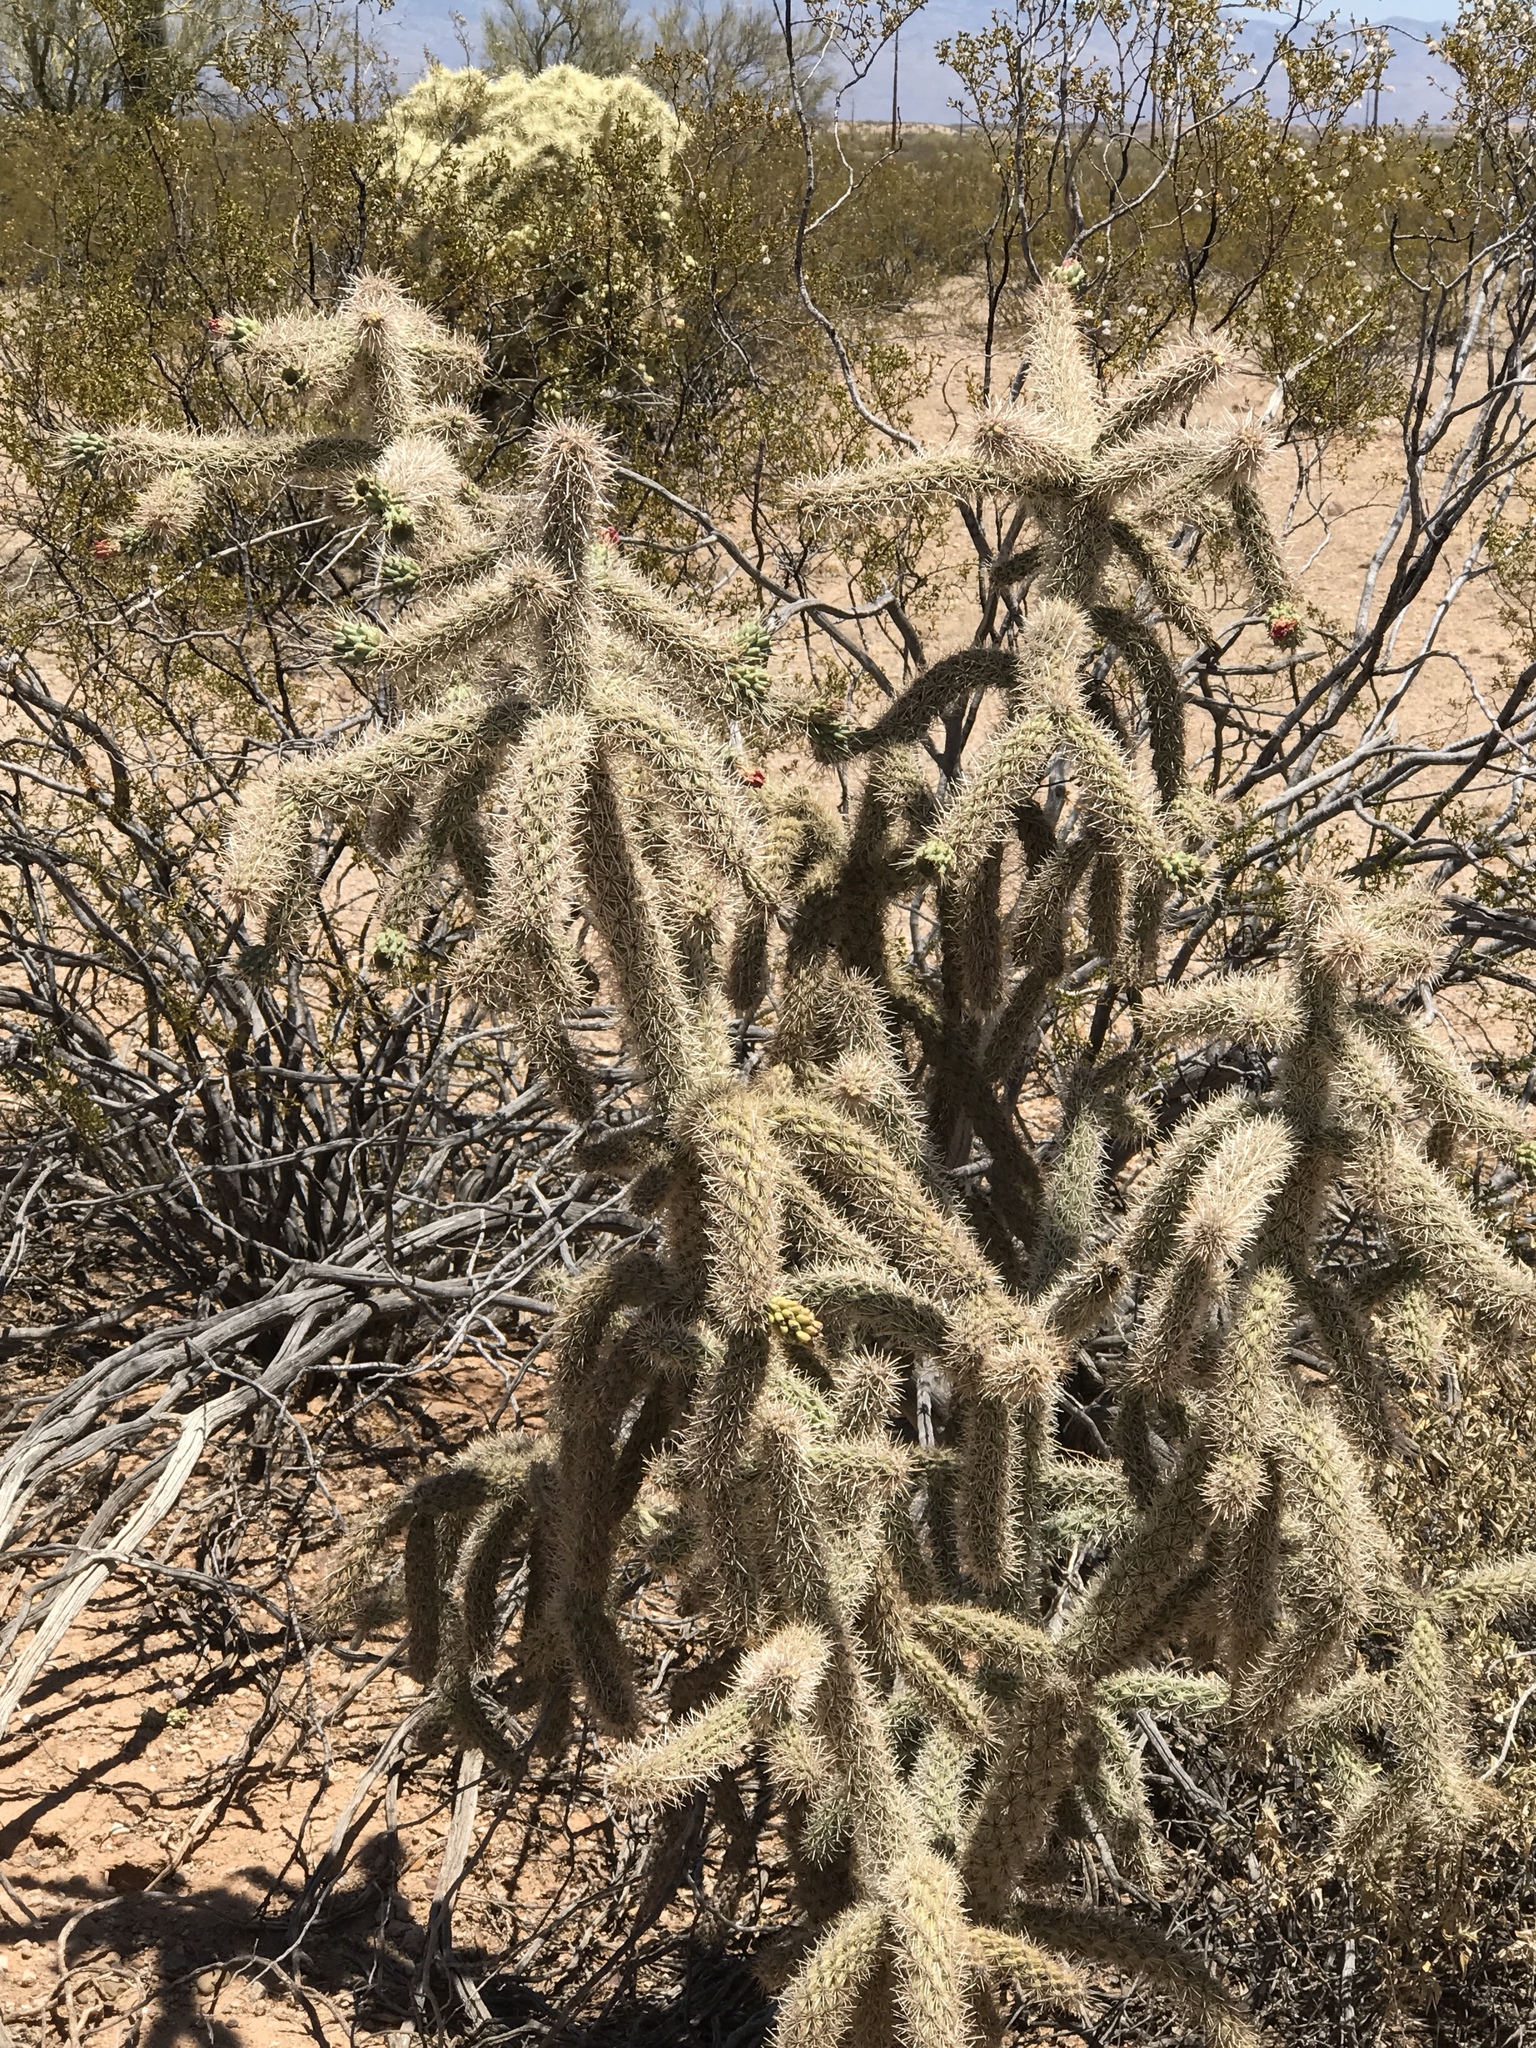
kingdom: Plantae
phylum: Tracheophyta
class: Magnoliopsida
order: Caryophyllales
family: Cactaceae
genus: Cylindropuntia
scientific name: Cylindropuntia imbricata
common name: Candelabrum cactus
